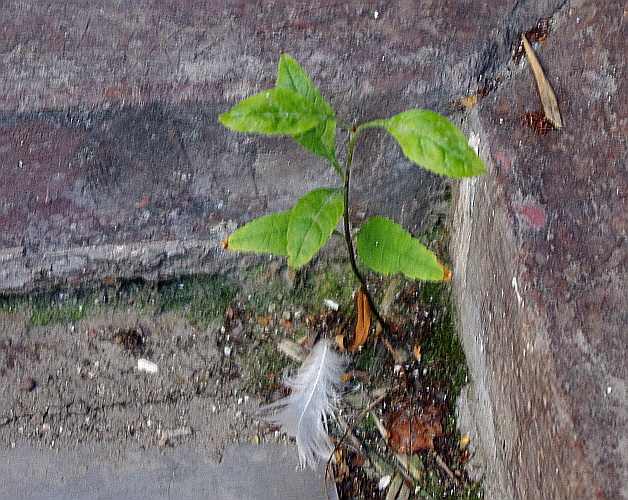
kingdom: Plantae
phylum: Tracheophyta
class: Magnoliopsida
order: Lamiales
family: Oleaceae
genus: Fraxinus
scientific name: Fraxinus pennsylvanica
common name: Green ash
